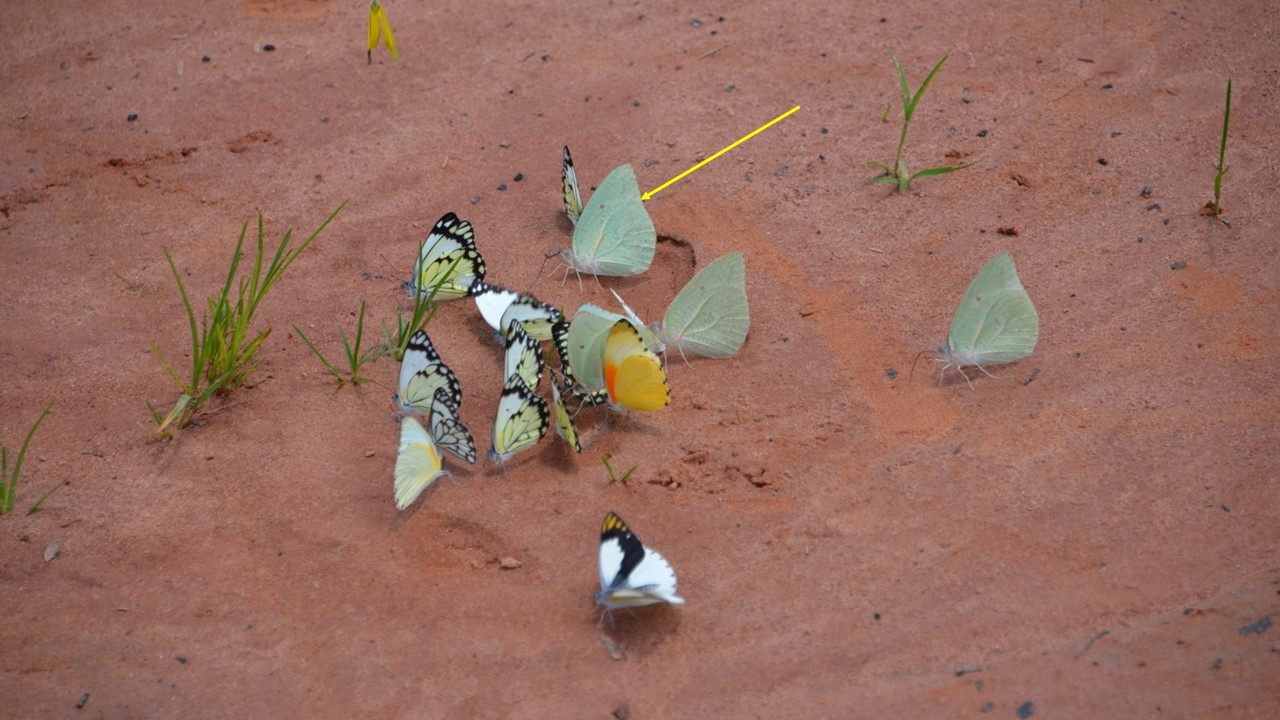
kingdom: Animalia
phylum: Arthropoda
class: Insecta
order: Lepidoptera
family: Pieridae
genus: Catopsilia
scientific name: Catopsilia florella
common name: African migrant
